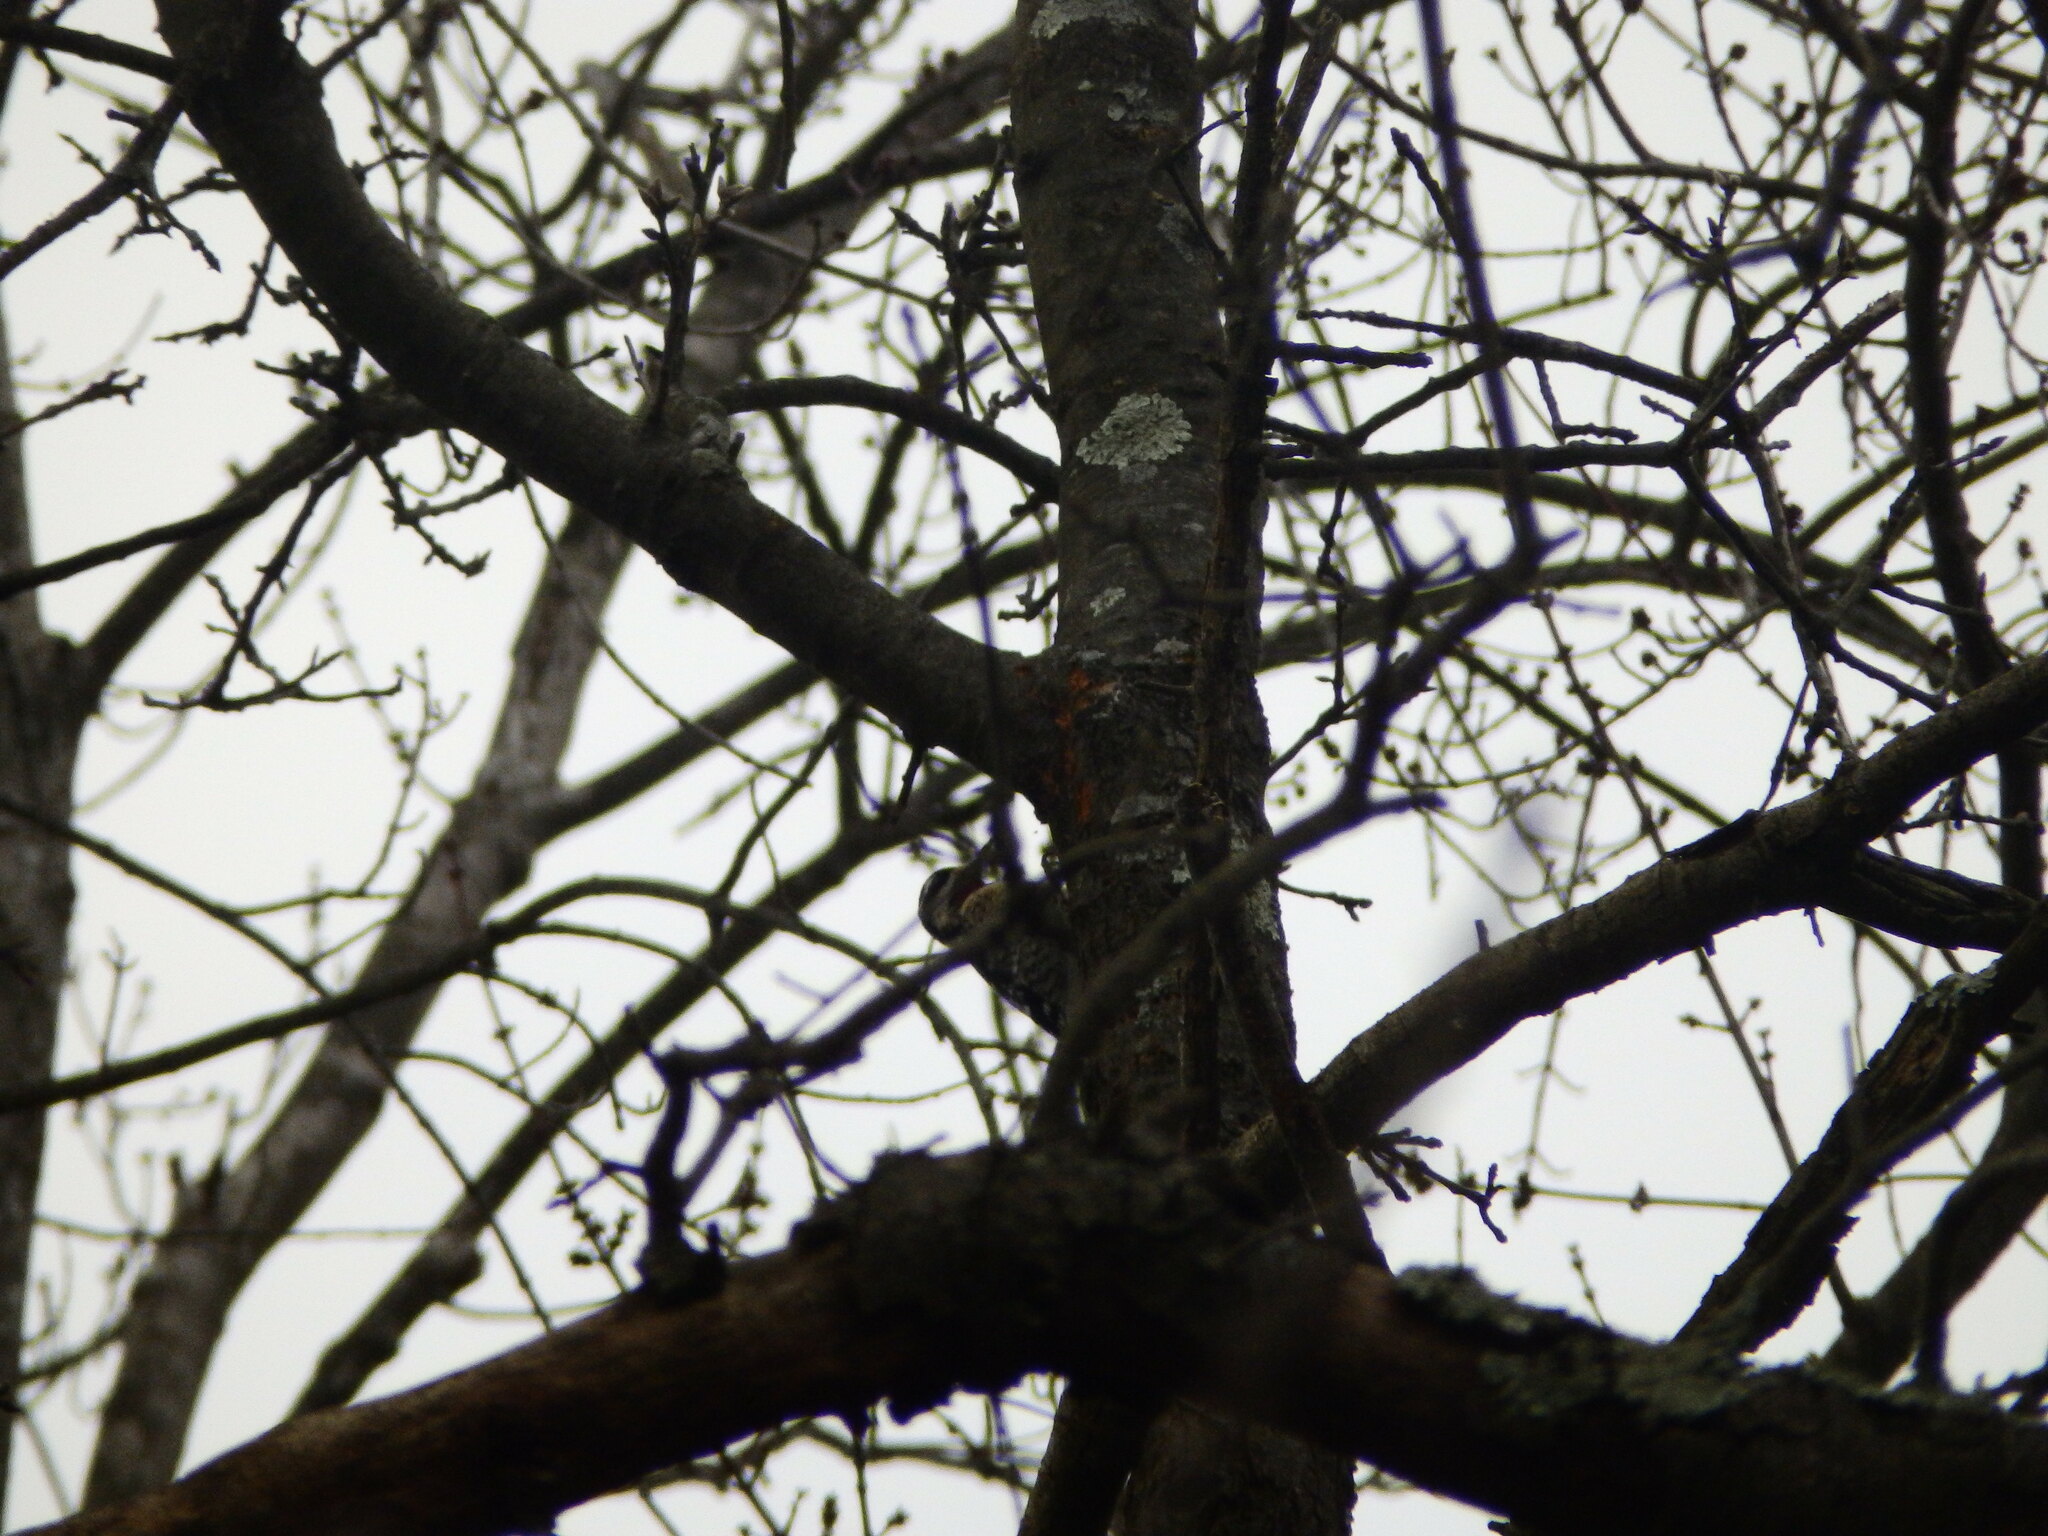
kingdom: Animalia
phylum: Chordata
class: Aves
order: Piciformes
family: Picidae
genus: Sphyrapicus
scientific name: Sphyrapicus varius
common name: Yellow-bellied sapsucker
